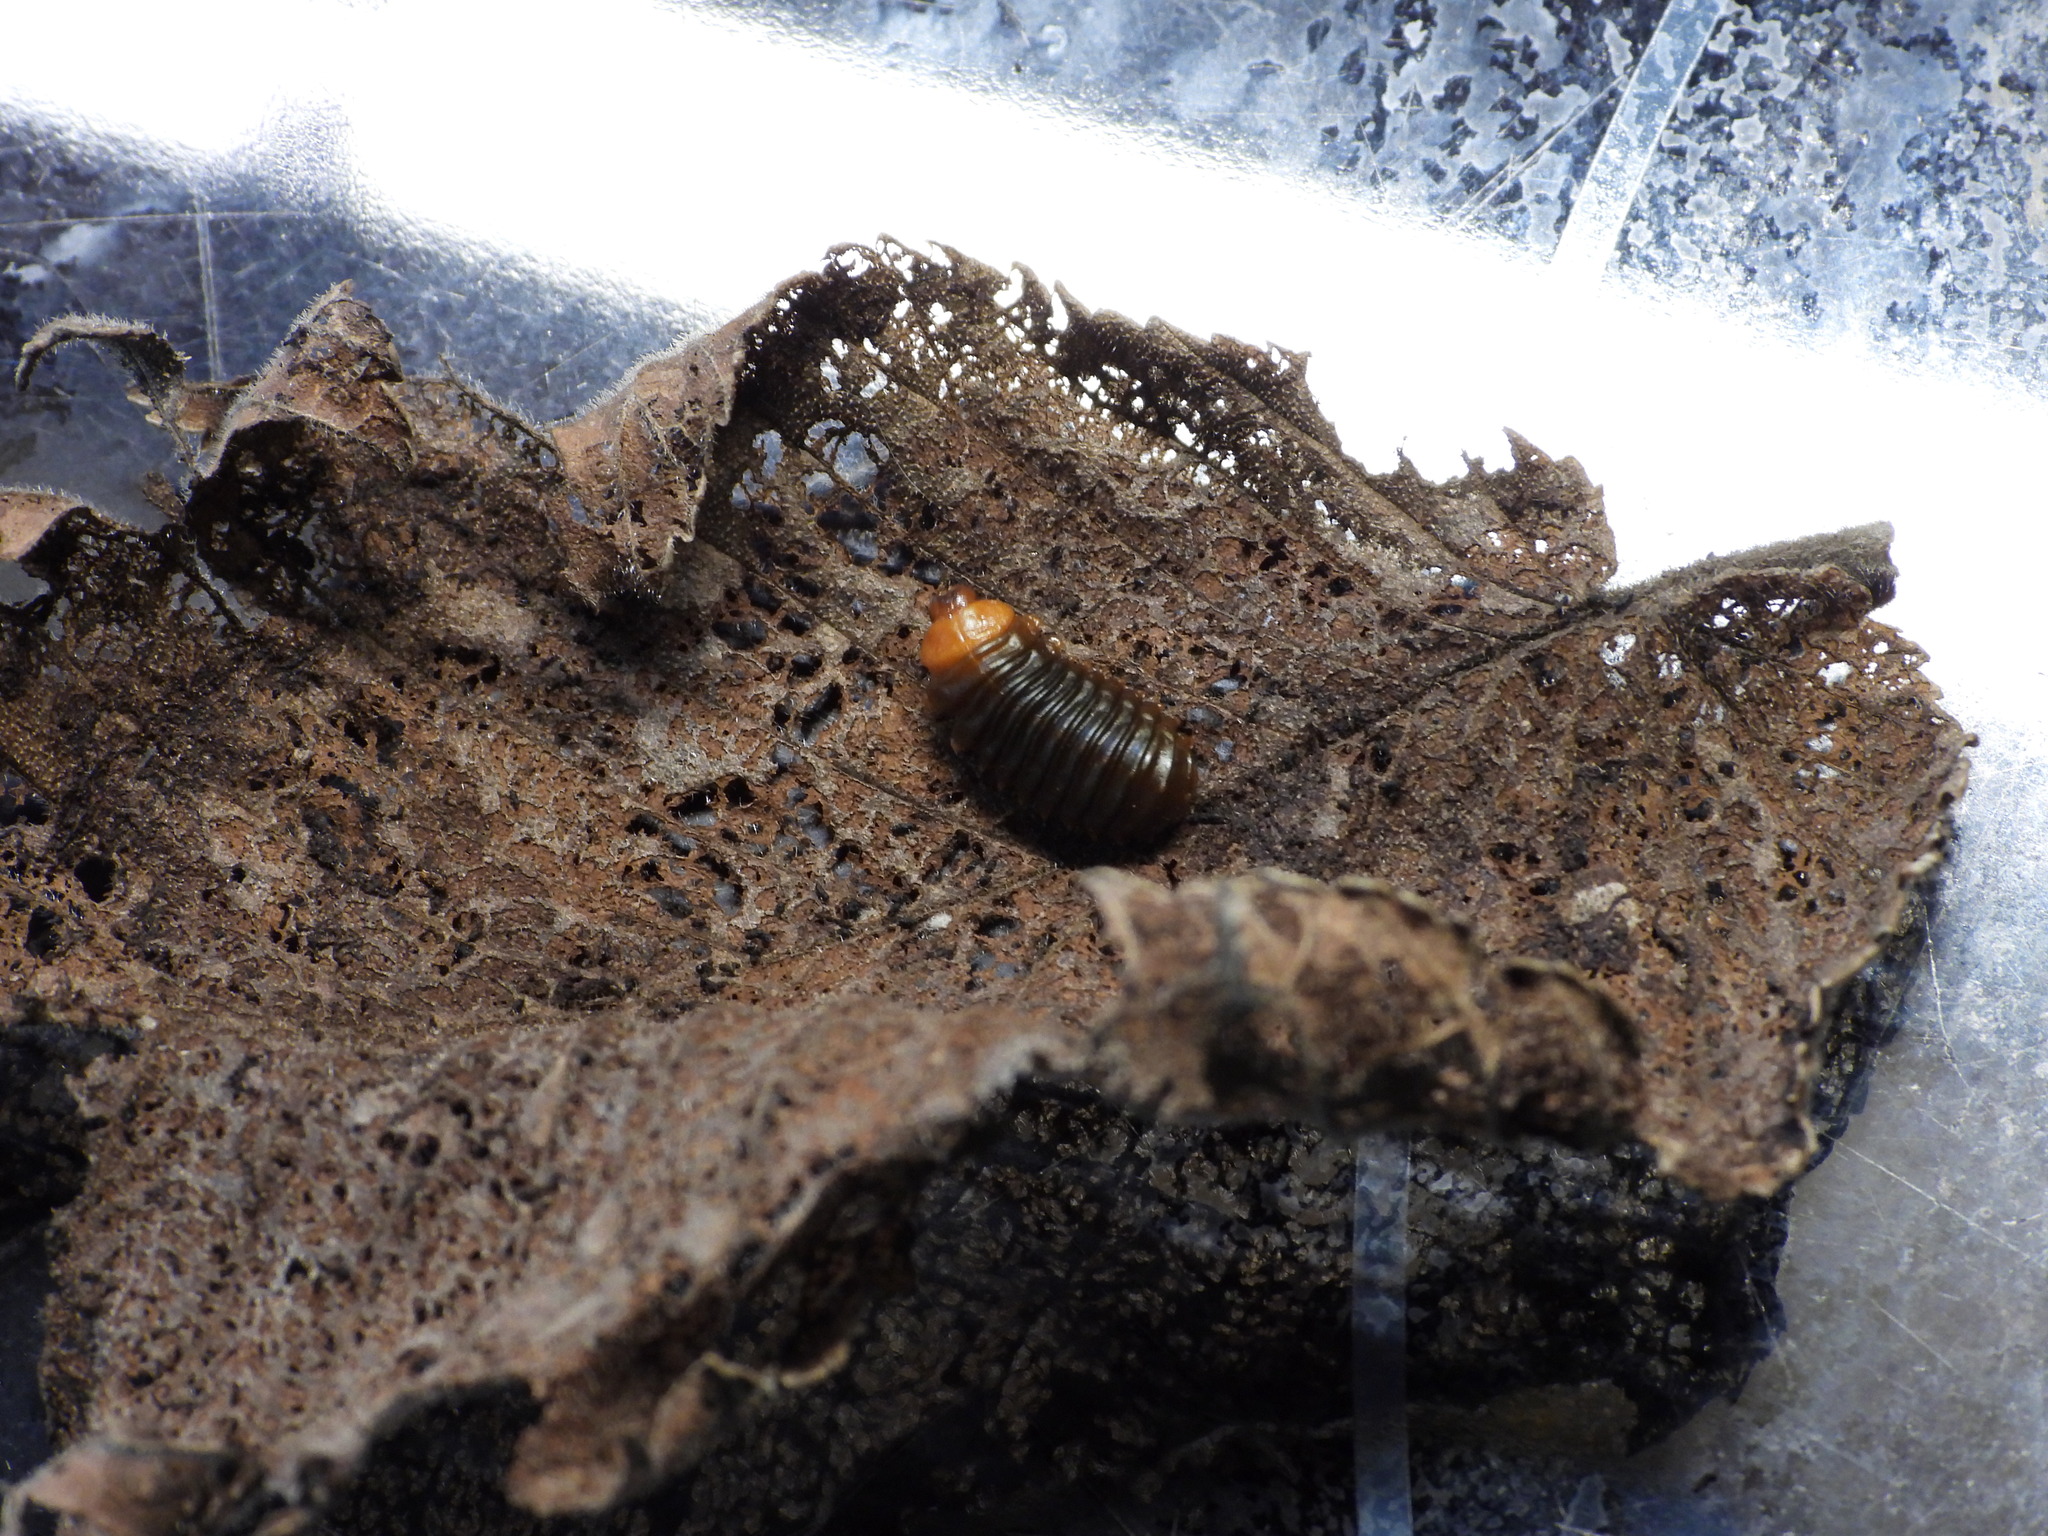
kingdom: Animalia
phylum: Arthropoda
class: Insecta
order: Coleoptera
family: Chrysomelidae
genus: Monocesta
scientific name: Monocesta coryli
